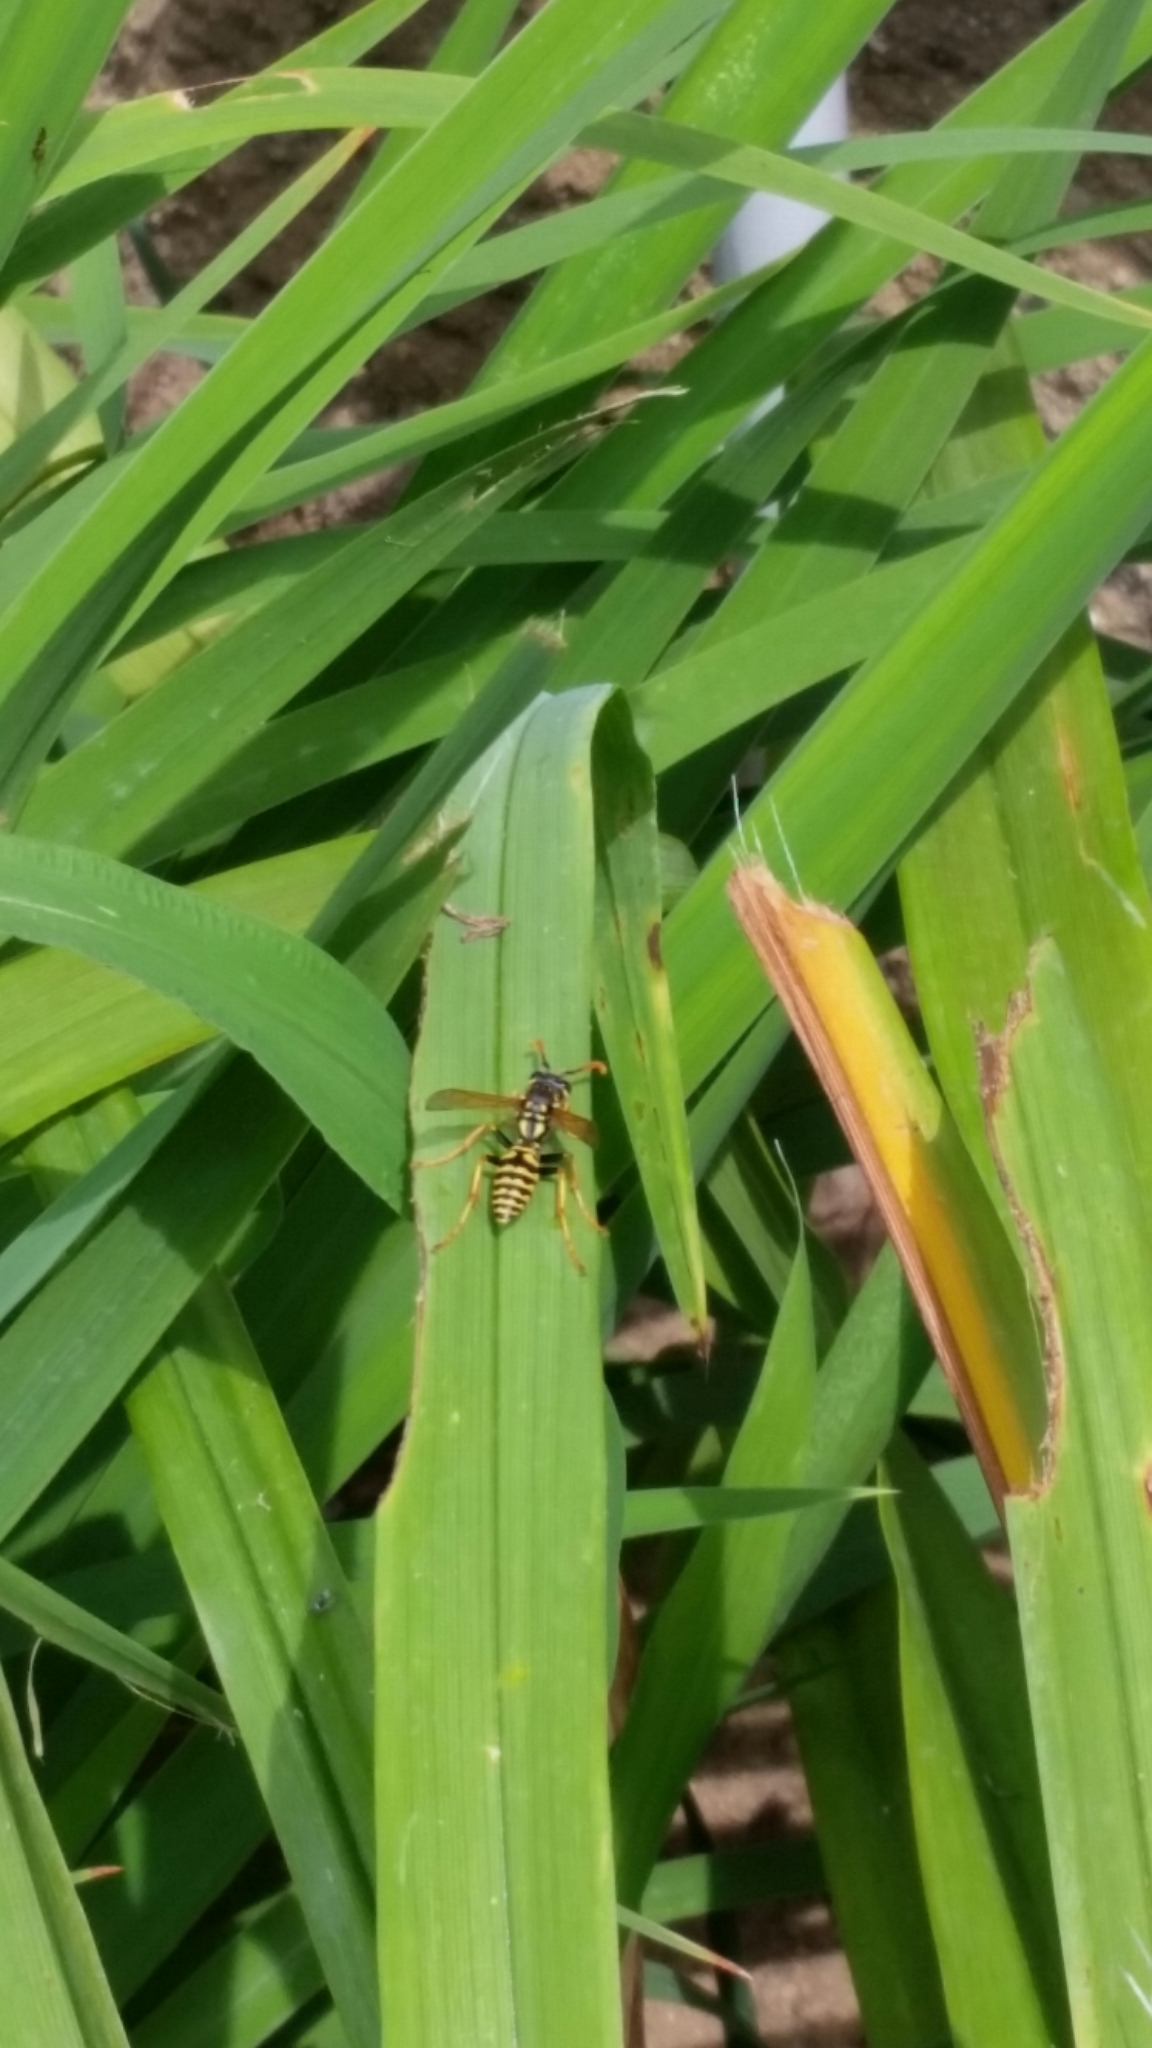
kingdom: Animalia
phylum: Arthropoda
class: Insecta
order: Hymenoptera
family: Eumenidae
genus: Polistes
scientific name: Polistes dominula
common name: Paper wasp
